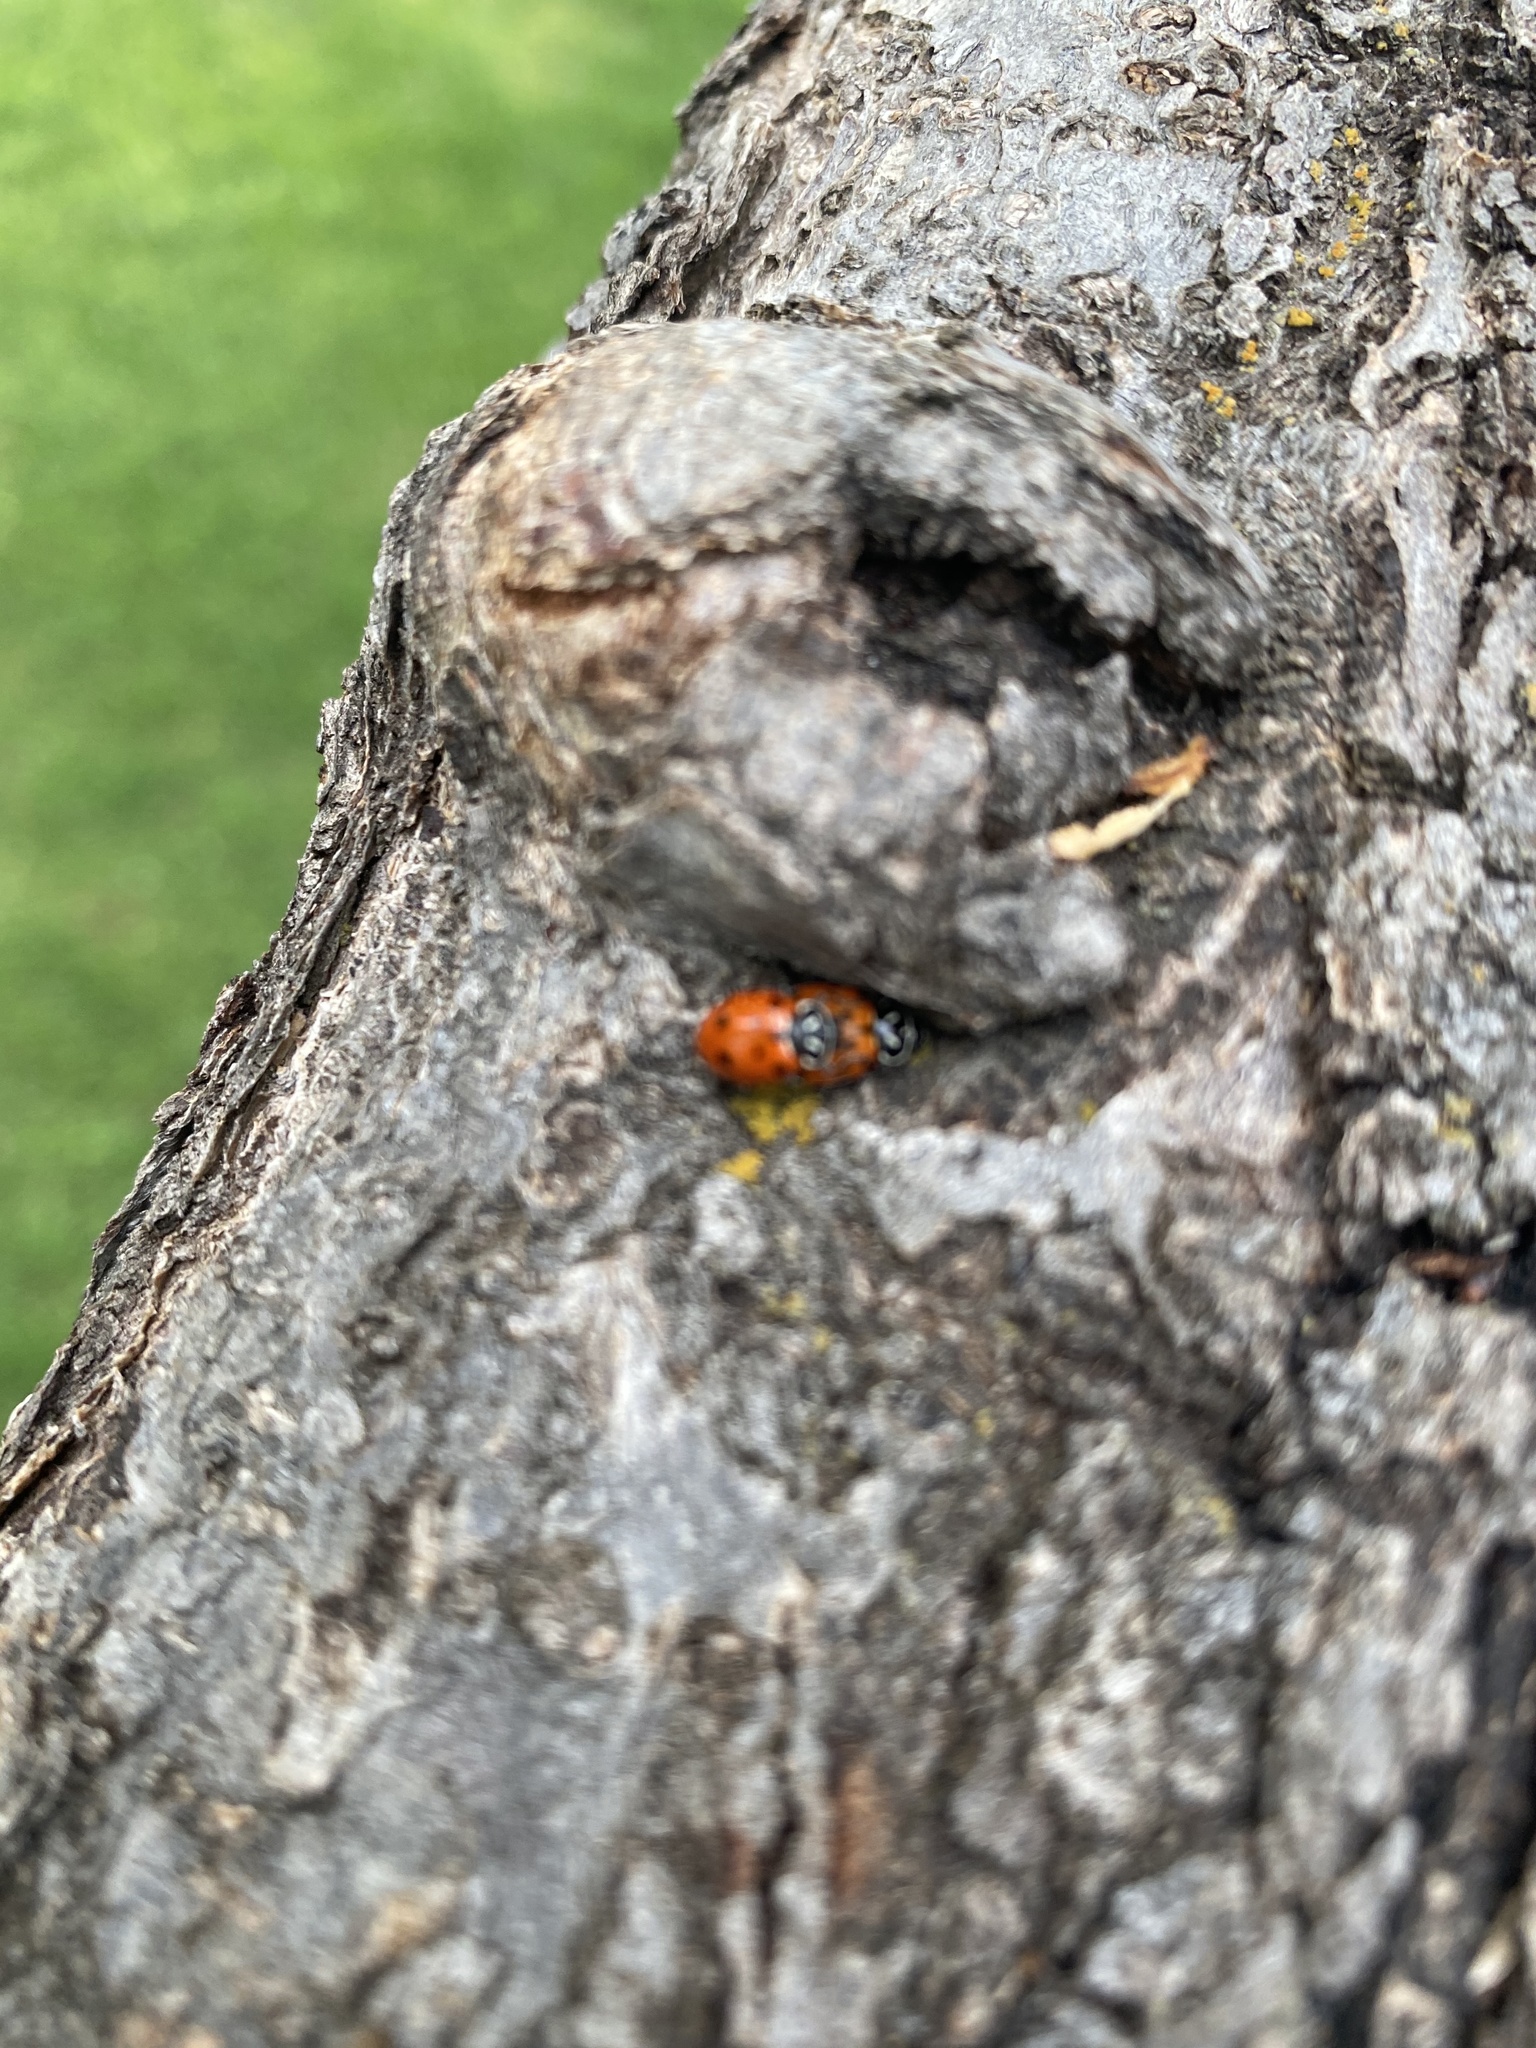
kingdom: Animalia
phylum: Arthropoda
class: Insecta
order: Coleoptera
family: Coccinellidae
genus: Hippodamia
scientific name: Hippodamia convergens
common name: Convergent lady beetle
